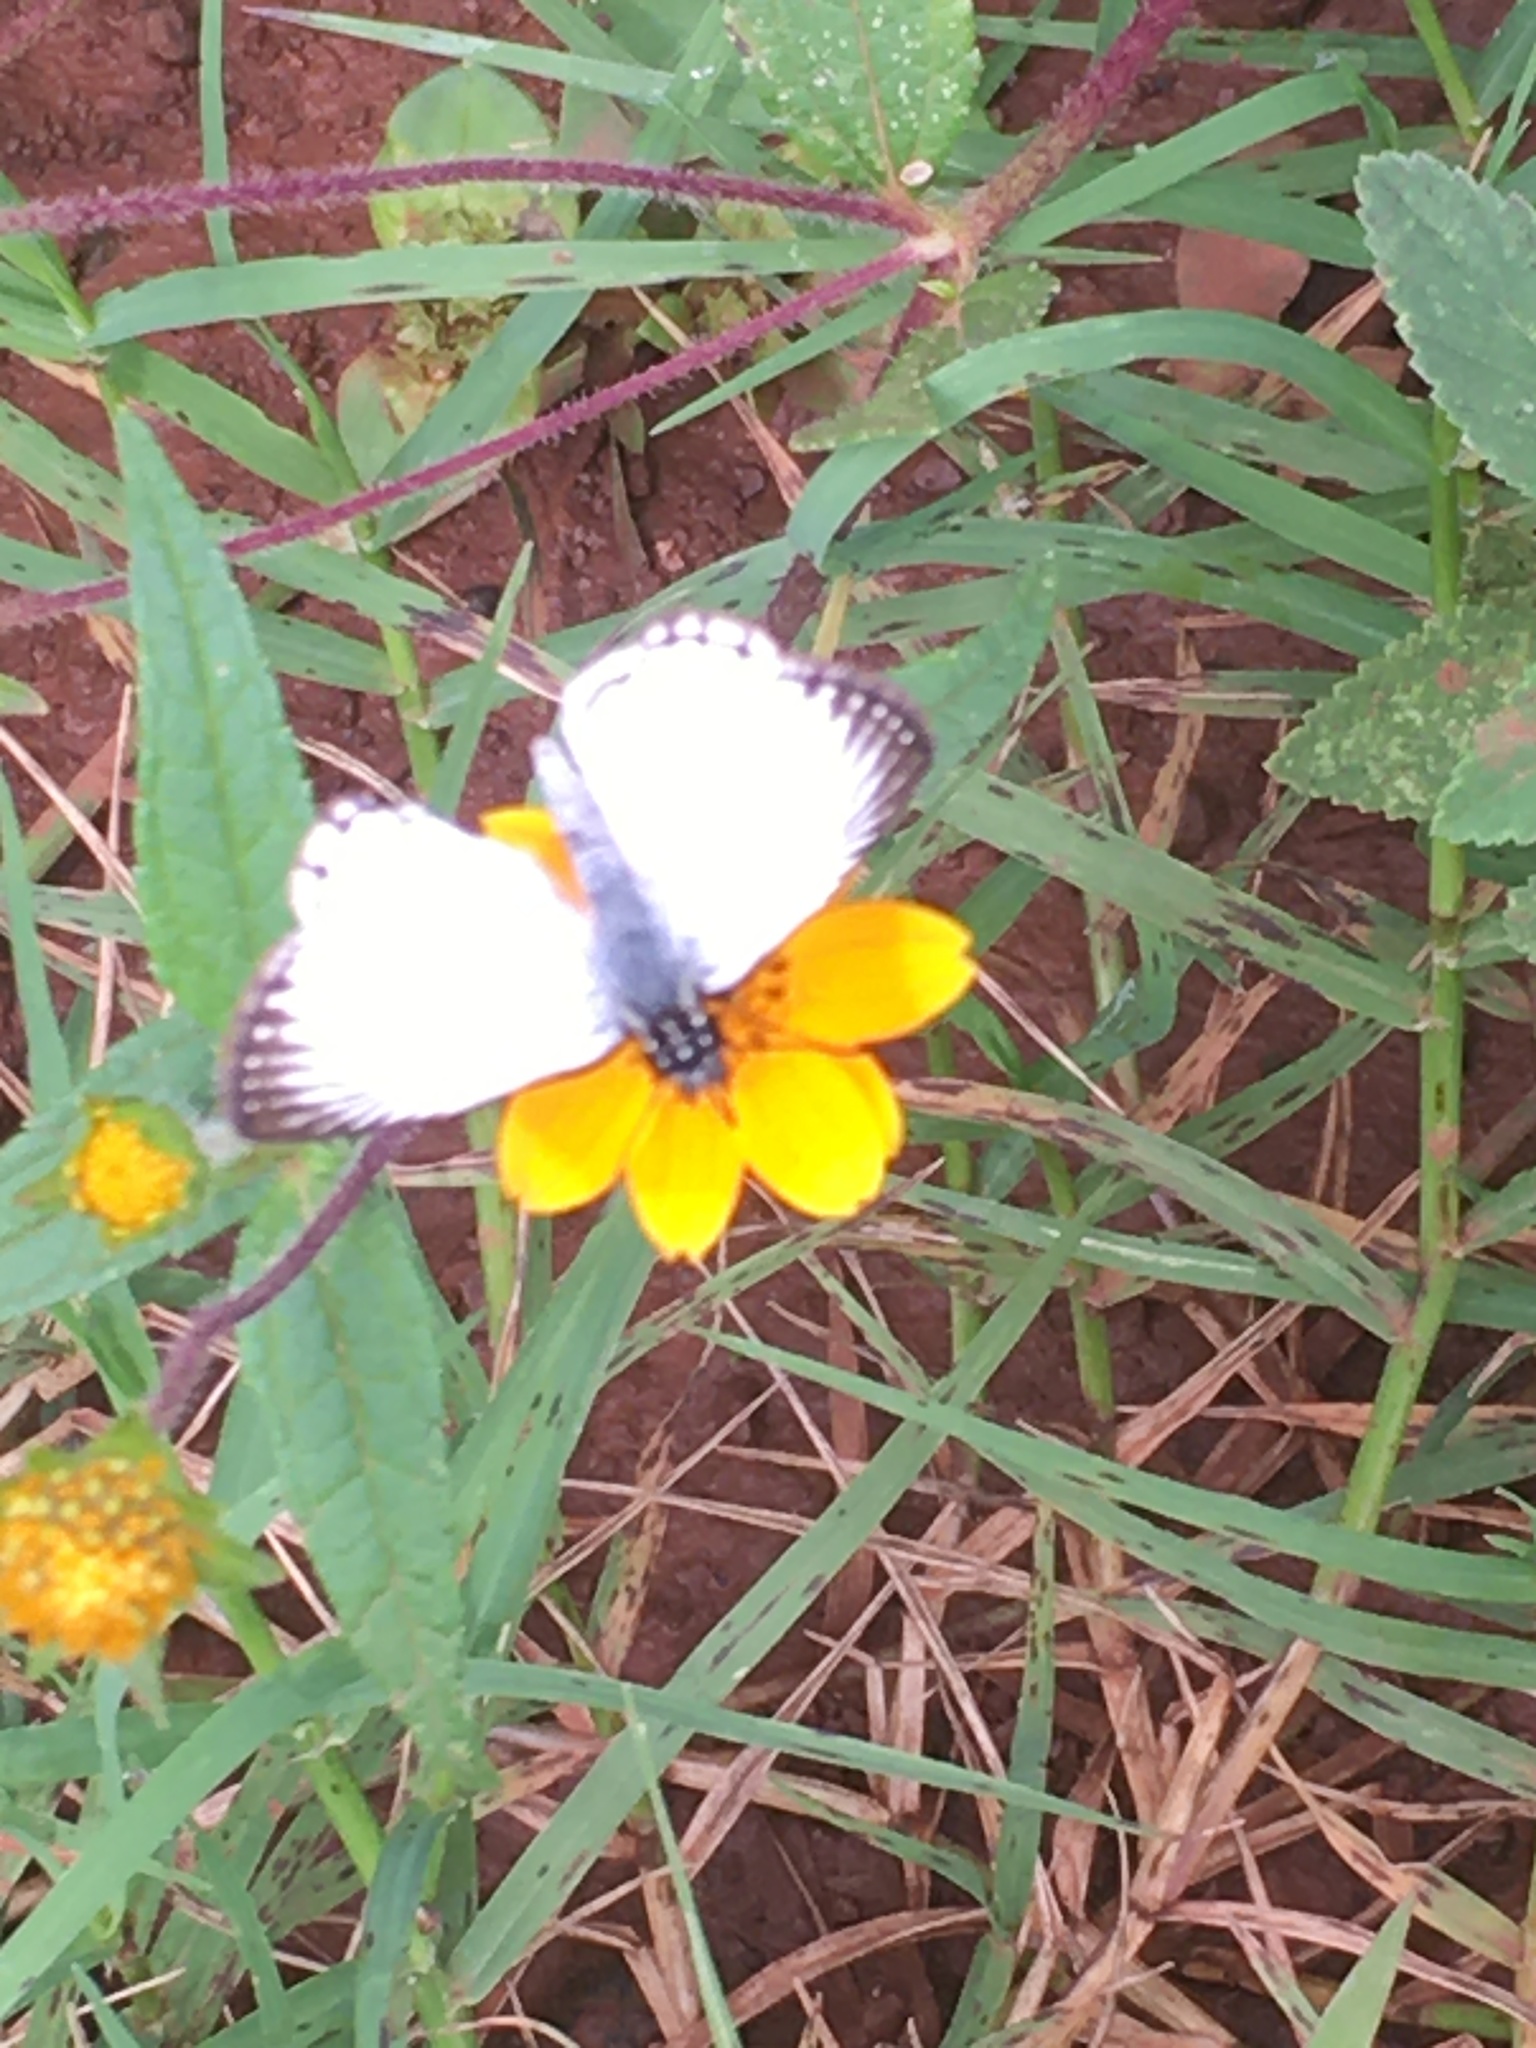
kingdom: Animalia
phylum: Arthropoda
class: Insecta
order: Lepidoptera
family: Hesperiidae
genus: Heliopetes
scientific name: Heliopetes arsalte
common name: Veined white-skipper
